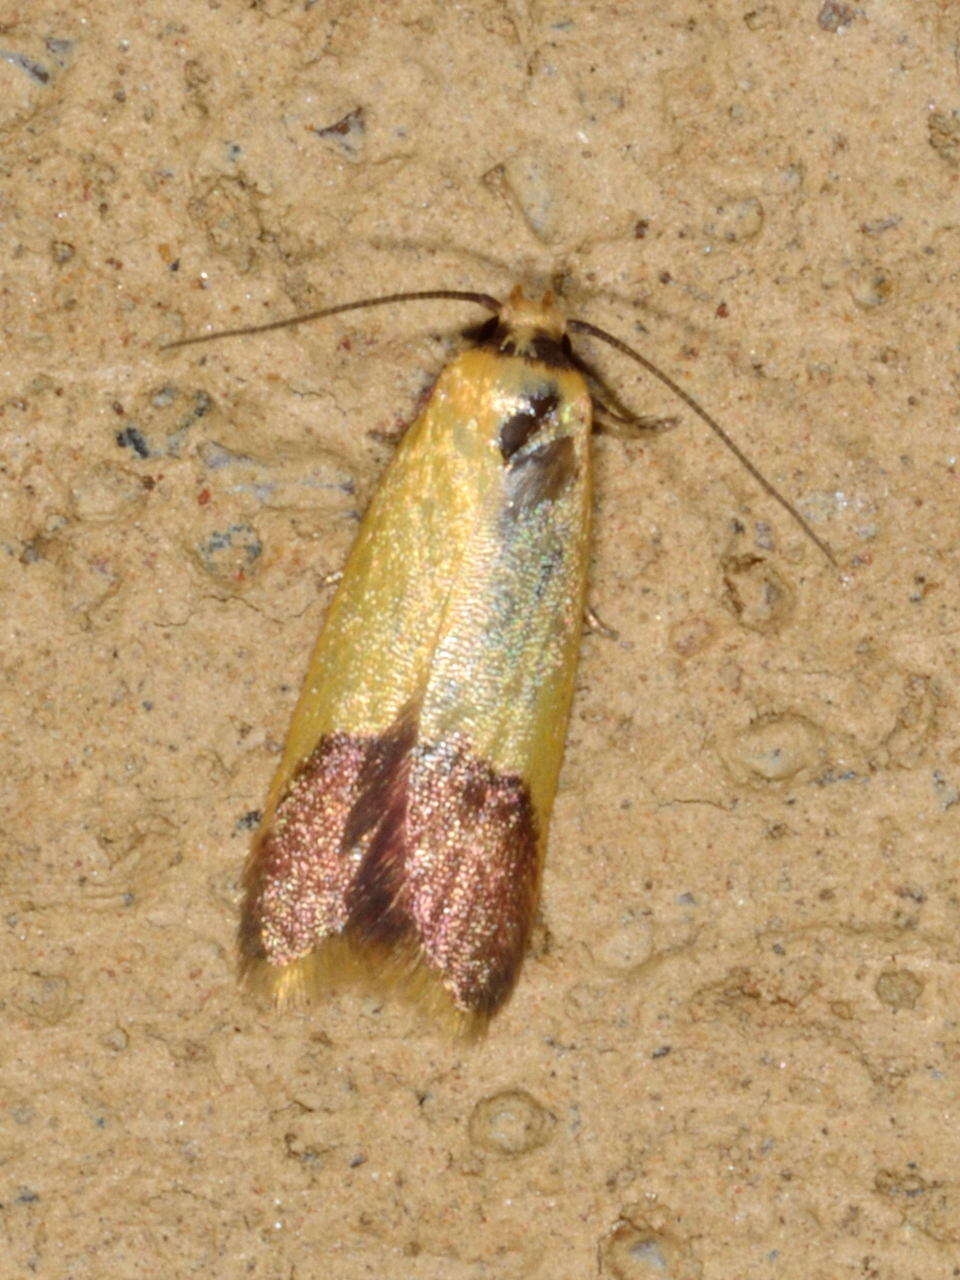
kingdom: Animalia
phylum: Arthropoda
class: Insecta
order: Lepidoptera
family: Oecophoridae
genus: Tachystola
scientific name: Tachystola stenoptera
